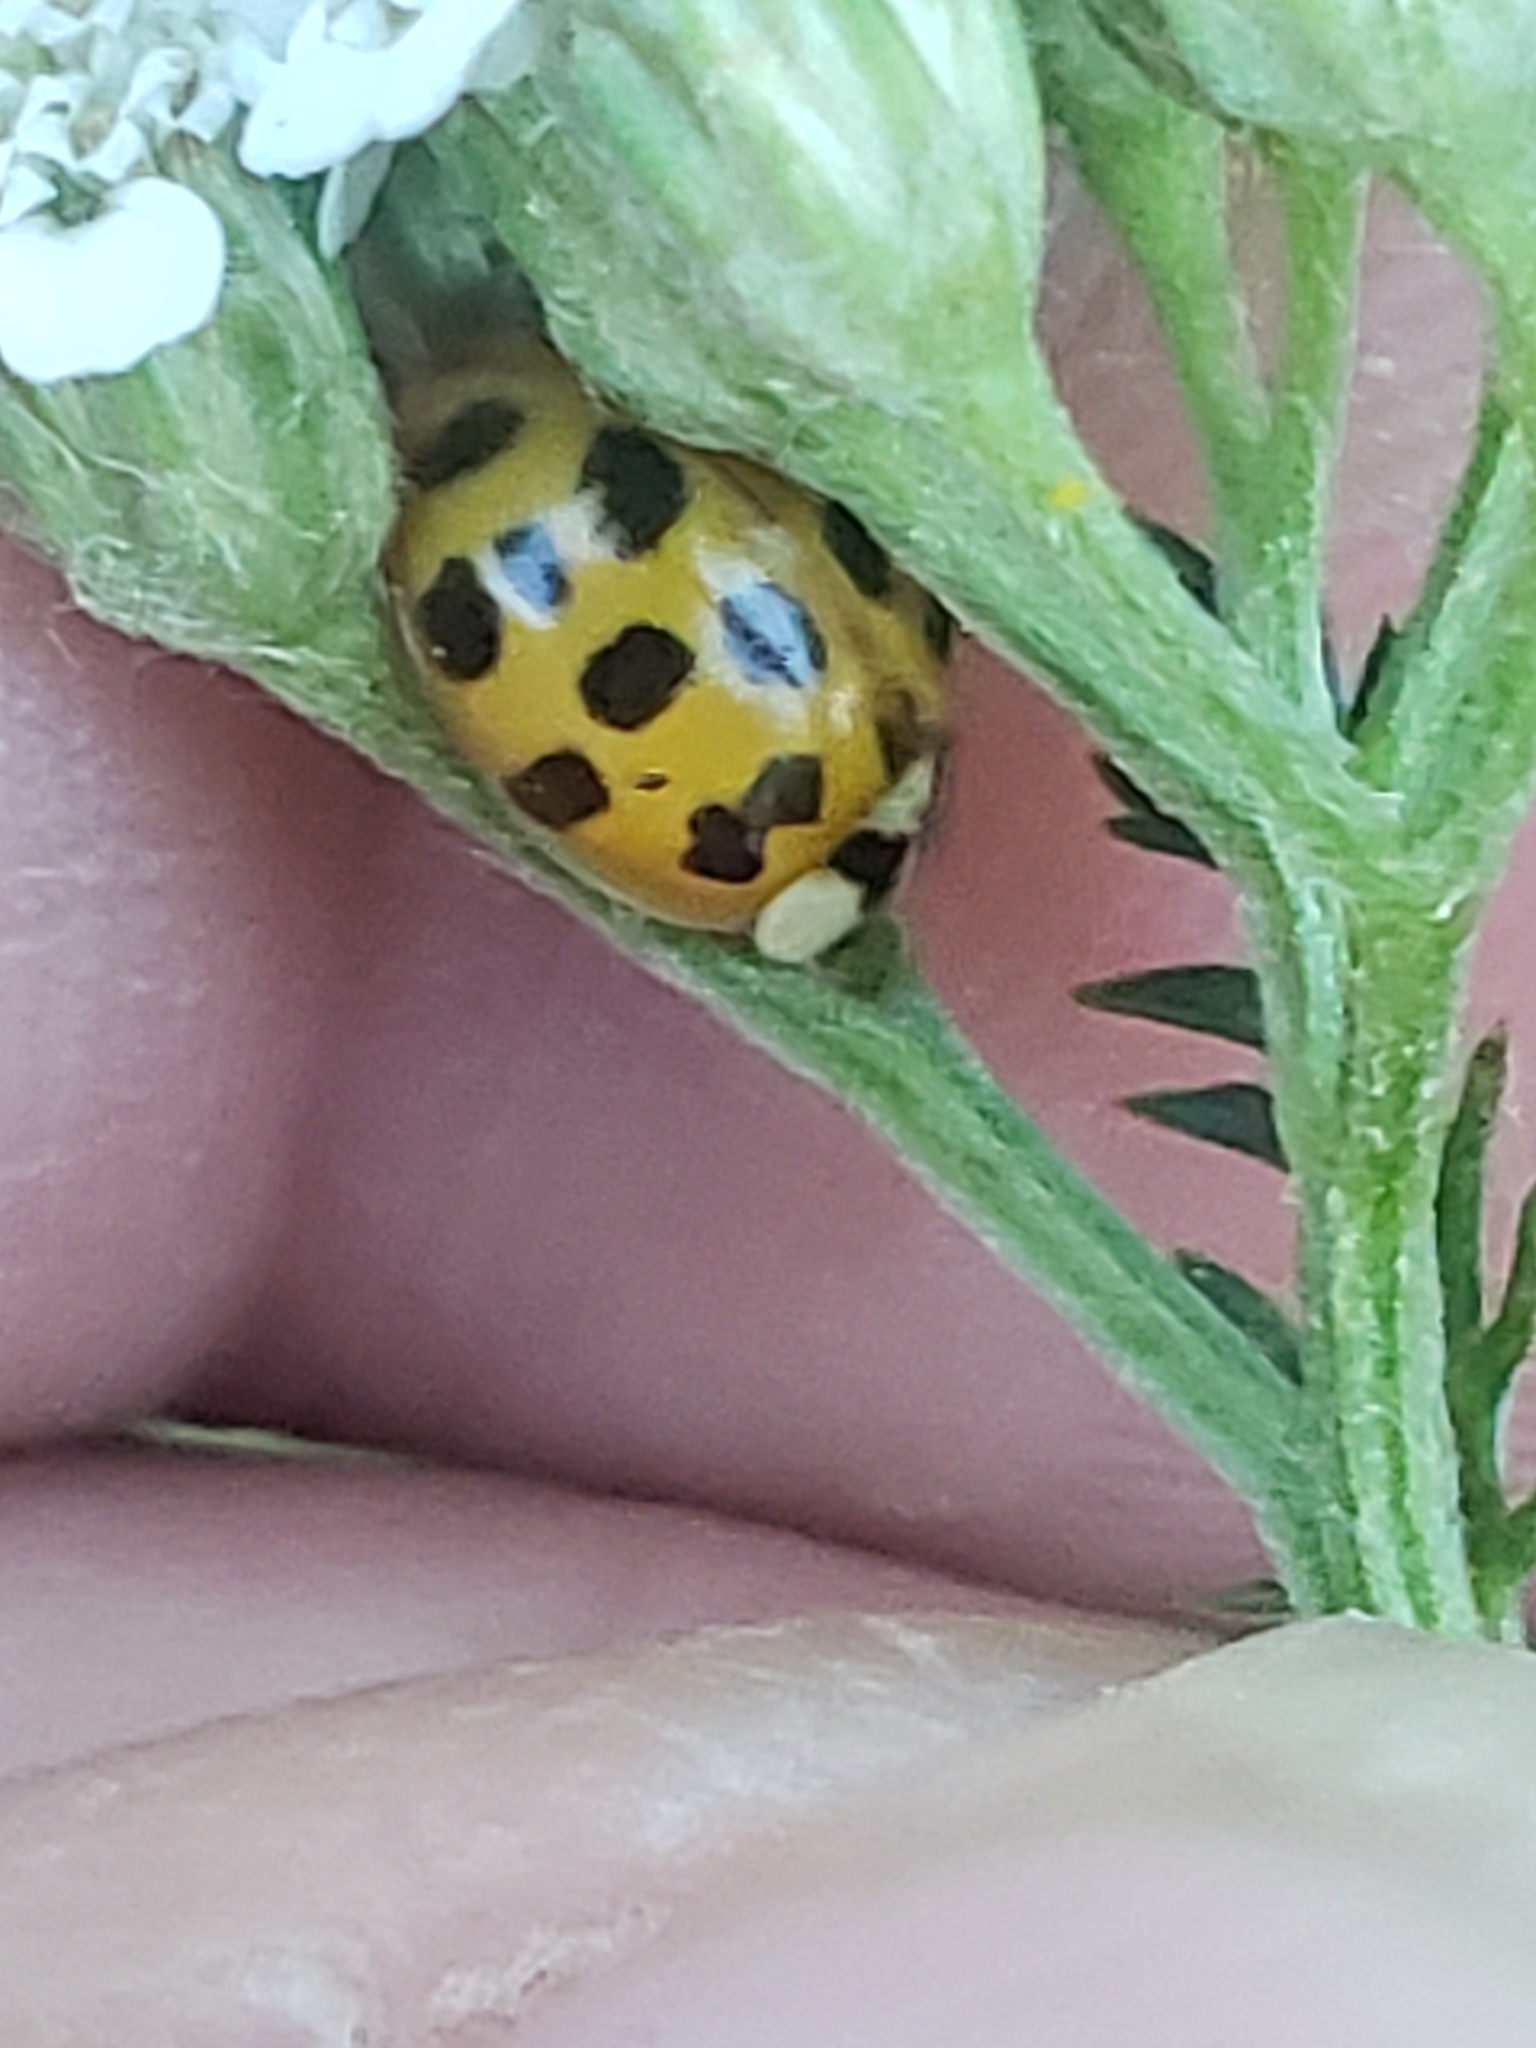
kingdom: Animalia
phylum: Arthropoda
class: Insecta
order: Coleoptera
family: Coccinellidae
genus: Harmonia
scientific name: Harmonia axyridis
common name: Harlequin ladybird
